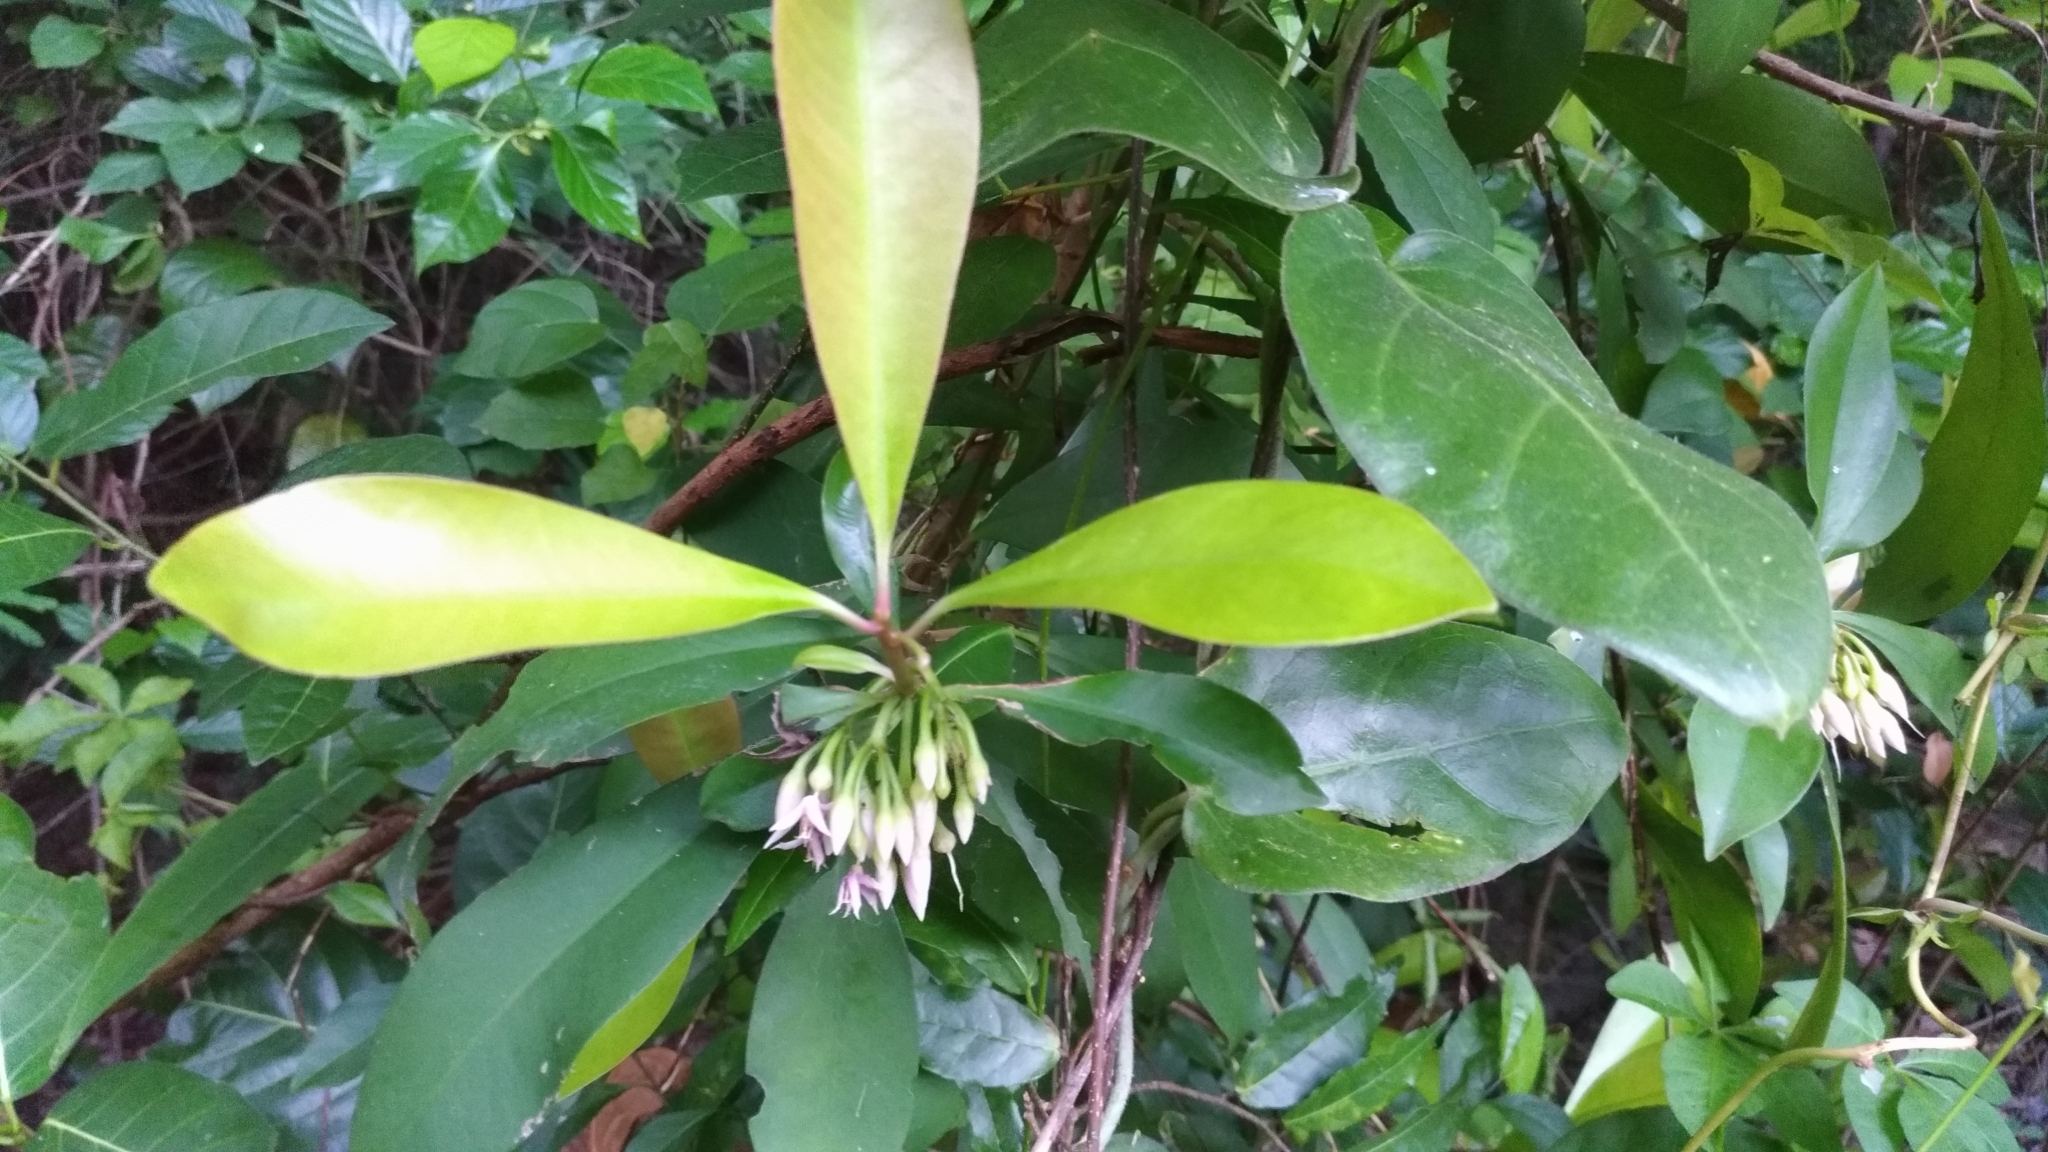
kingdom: Plantae
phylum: Tracheophyta
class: Magnoliopsida
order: Ericales
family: Primulaceae
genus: Ardisia
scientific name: Ardisia elliptica
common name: Shoebutton
